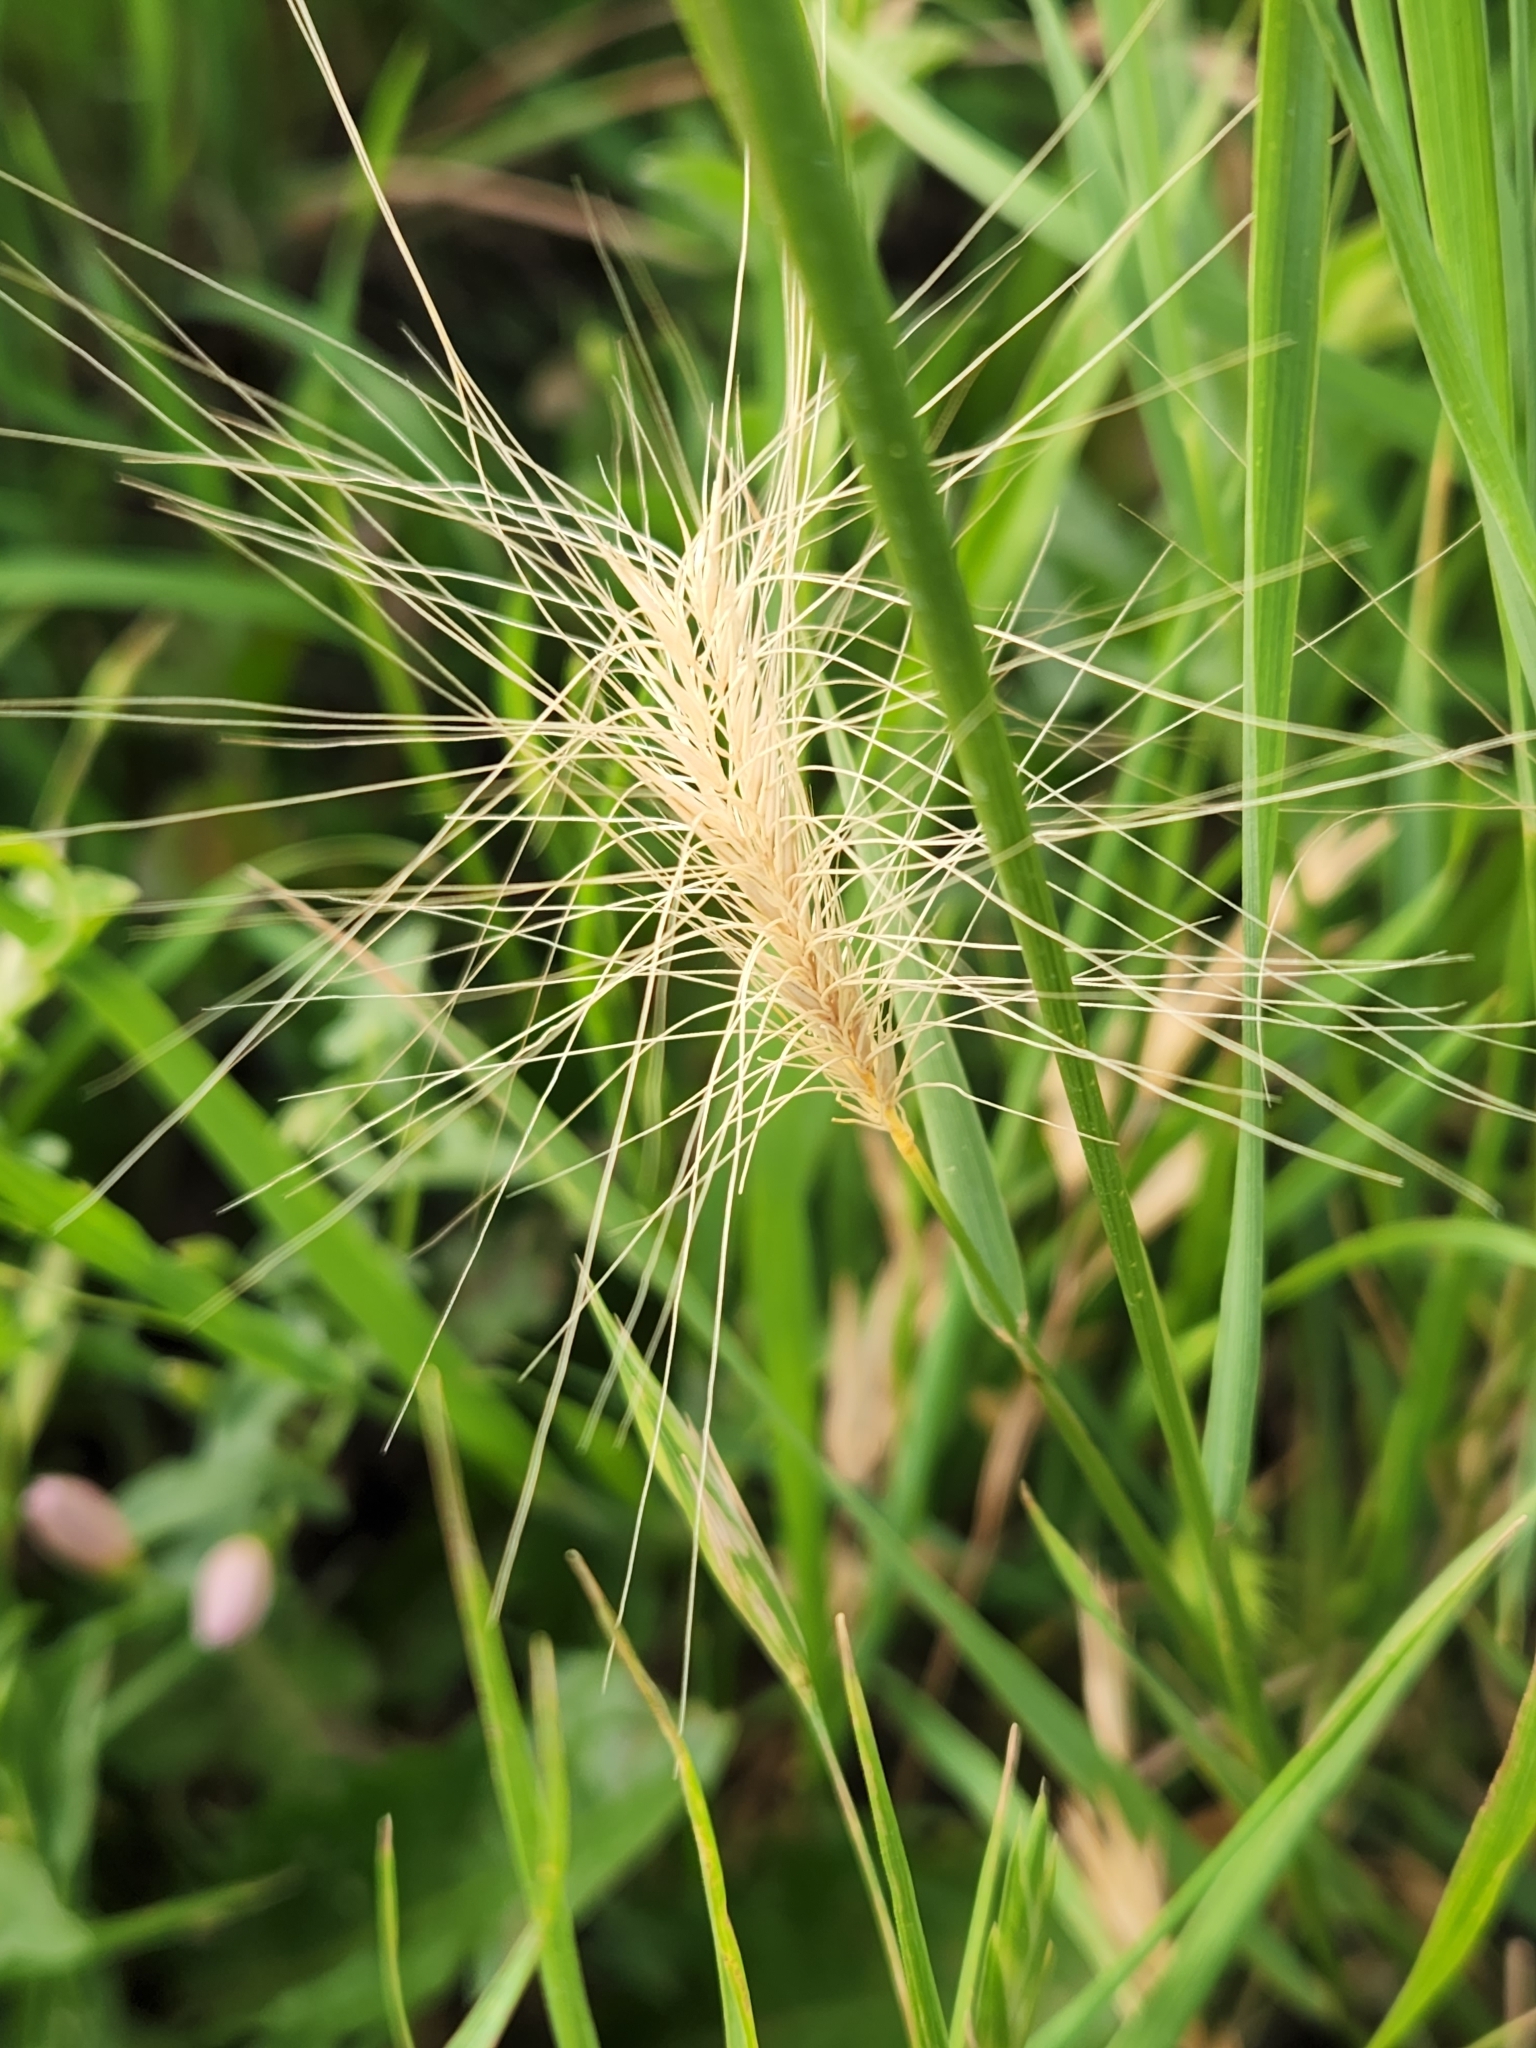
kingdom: Plantae
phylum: Tracheophyta
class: Liliopsida
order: Poales
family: Poaceae
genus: Hordeum
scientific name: Hordeum jubatum
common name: Foxtail barley
